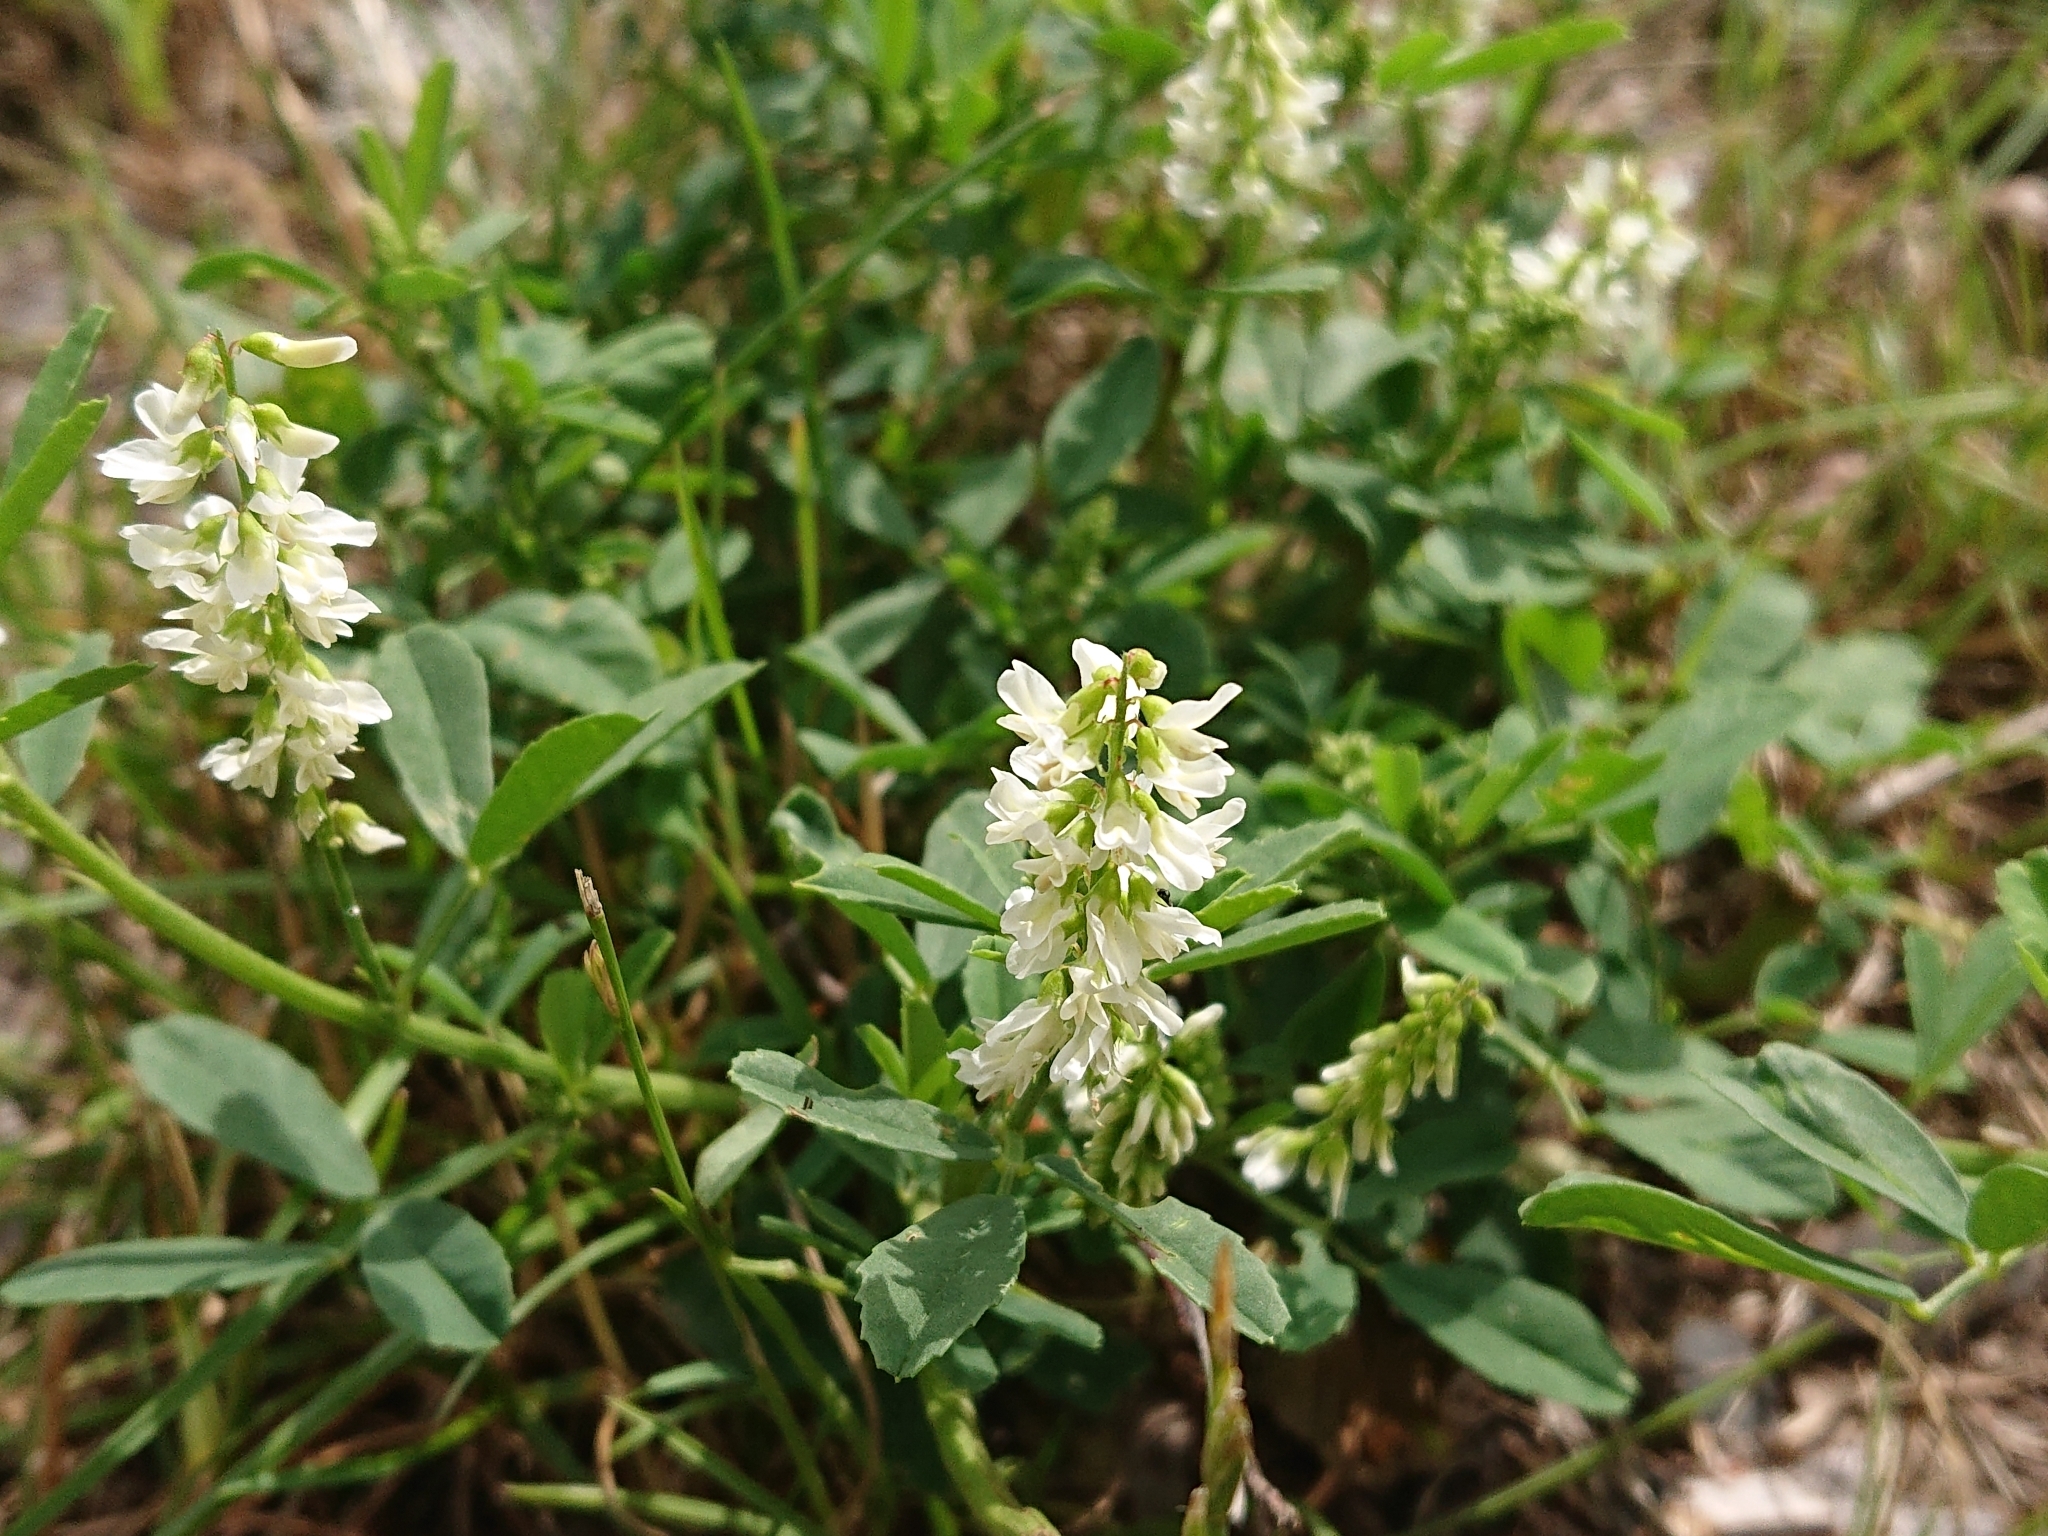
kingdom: Plantae
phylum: Tracheophyta
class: Magnoliopsida
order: Fabales
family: Fabaceae
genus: Melilotus
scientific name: Melilotus albus
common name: White melilot
